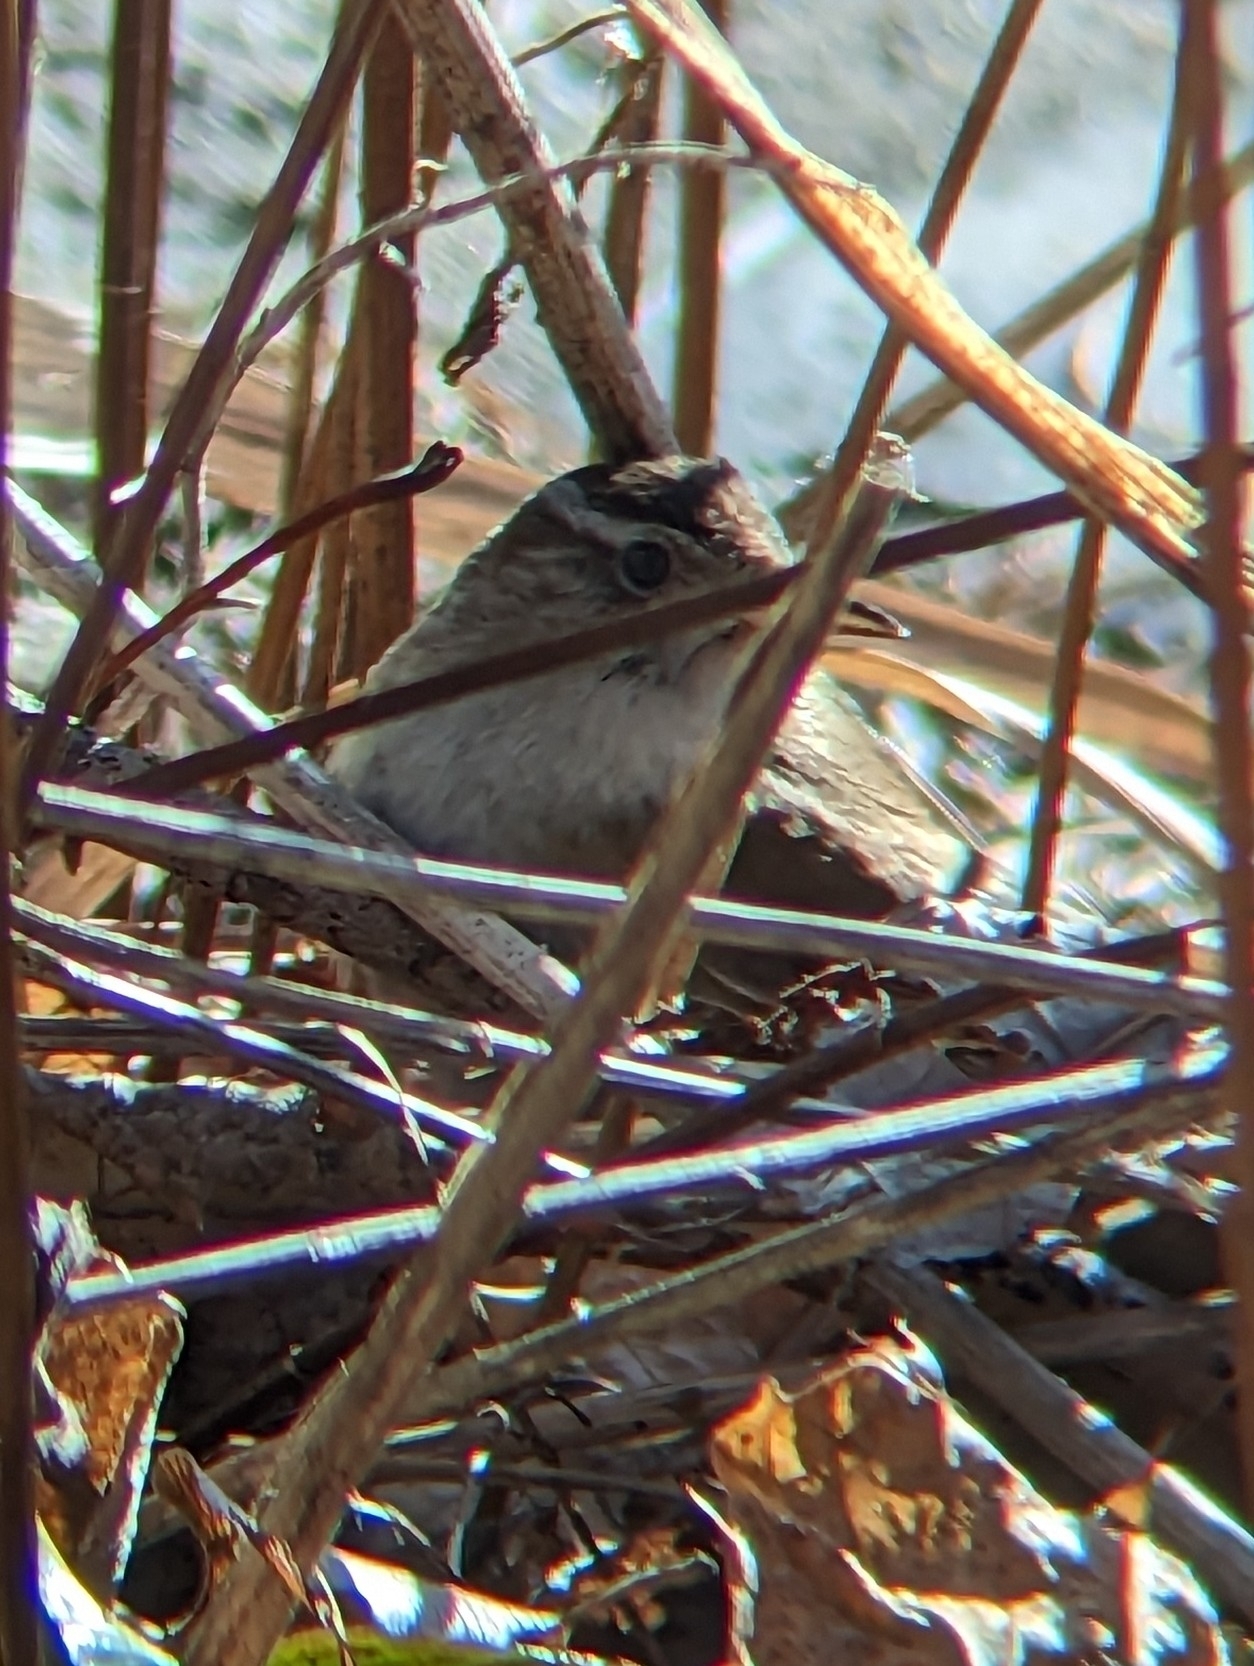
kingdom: Animalia
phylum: Chordata
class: Aves
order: Passeriformes
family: Troglodytidae
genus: Cistothorus
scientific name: Cistothorus palustris
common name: Marsh wren
